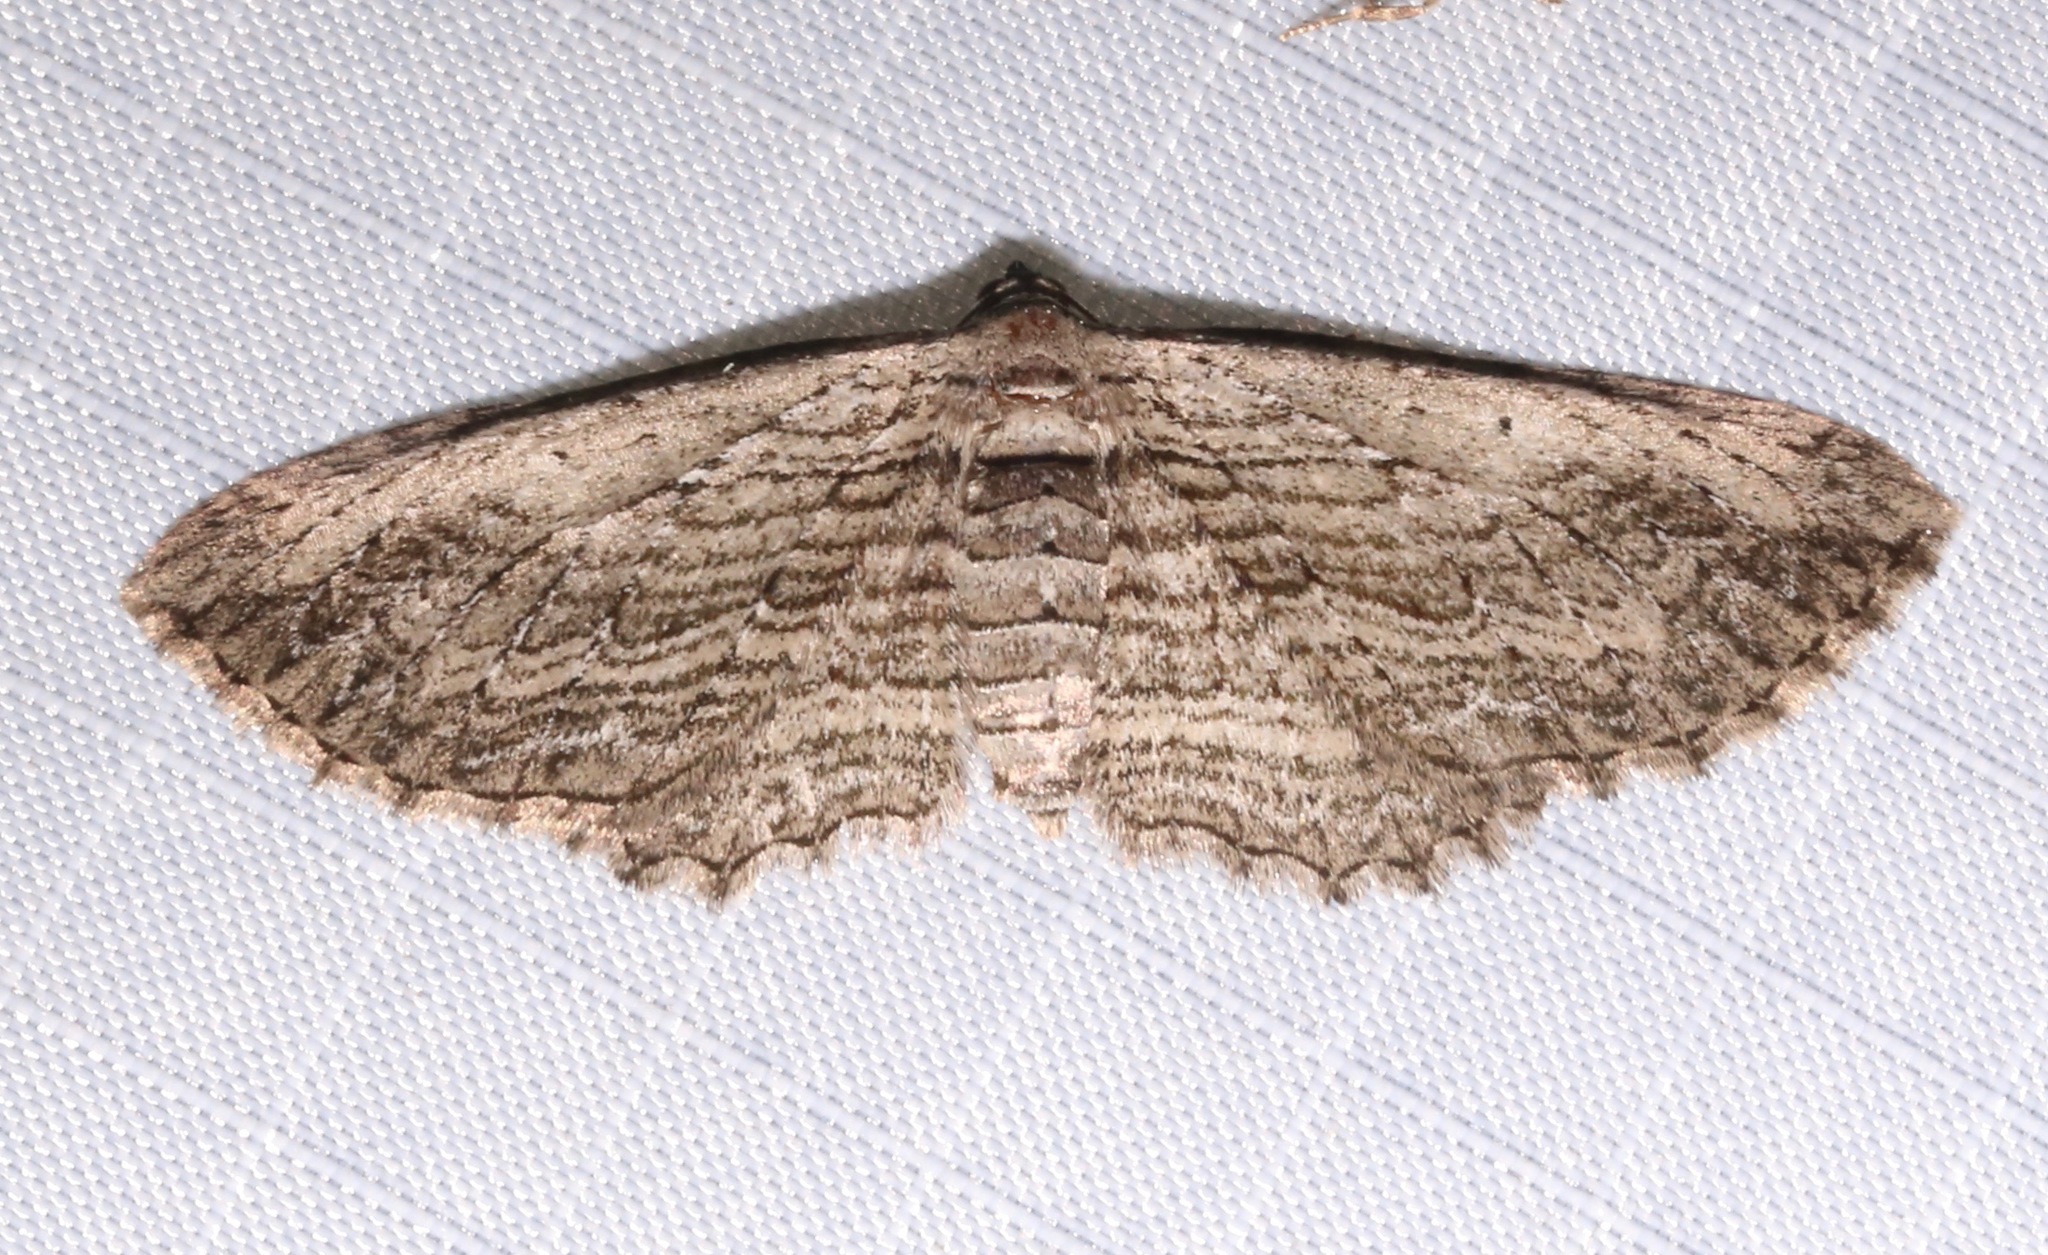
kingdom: Animalia
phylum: Arthropoda
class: Insecta
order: Lepidoptera
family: Geometridae
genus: Horisme
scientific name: Horisme intestinata
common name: Brown bark carpet
